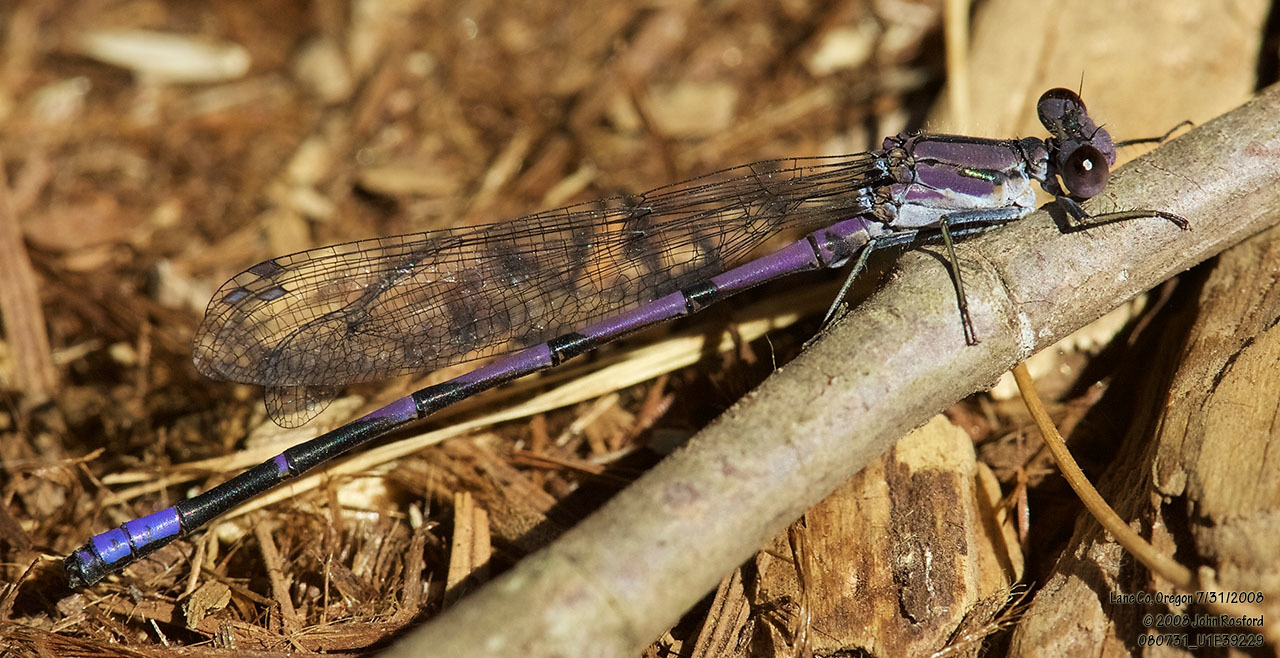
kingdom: Animalia
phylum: Arthropoda
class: Insecta
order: Odonata
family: Coenagrionidae
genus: Argia
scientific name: Argia emma
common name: Emma's dancer
